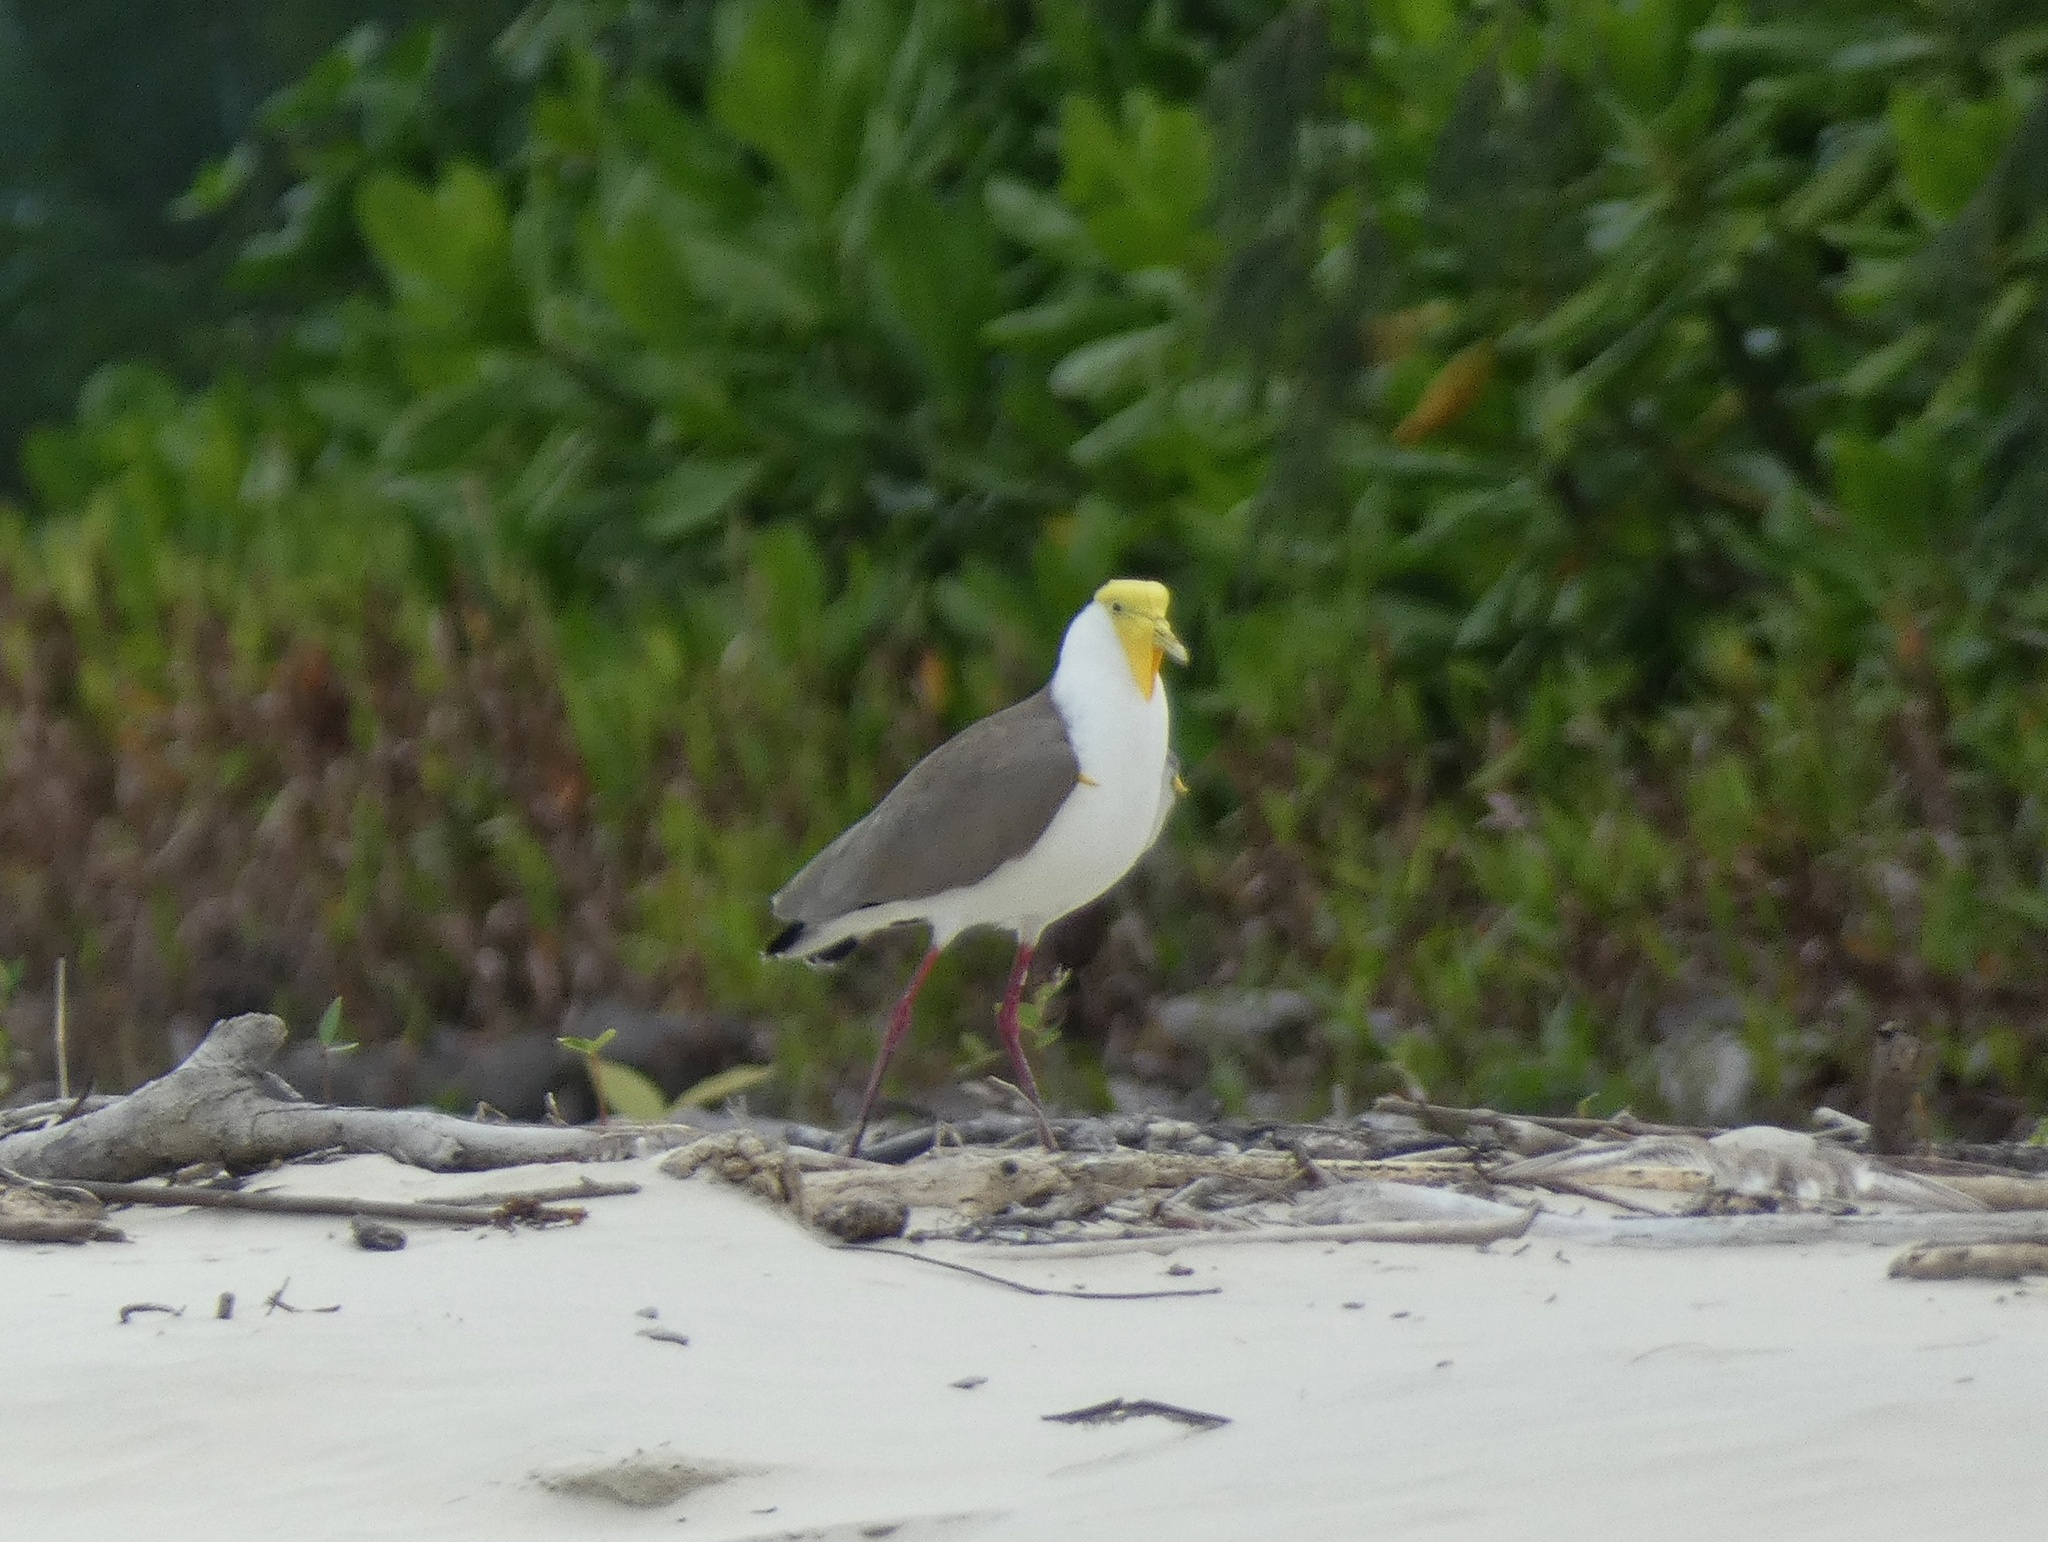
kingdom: Animalia
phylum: Chordata
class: Aves
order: Charadriiformes
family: Charadriidae
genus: Vanellus
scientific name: Vanellus miles
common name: Masked lapwing
